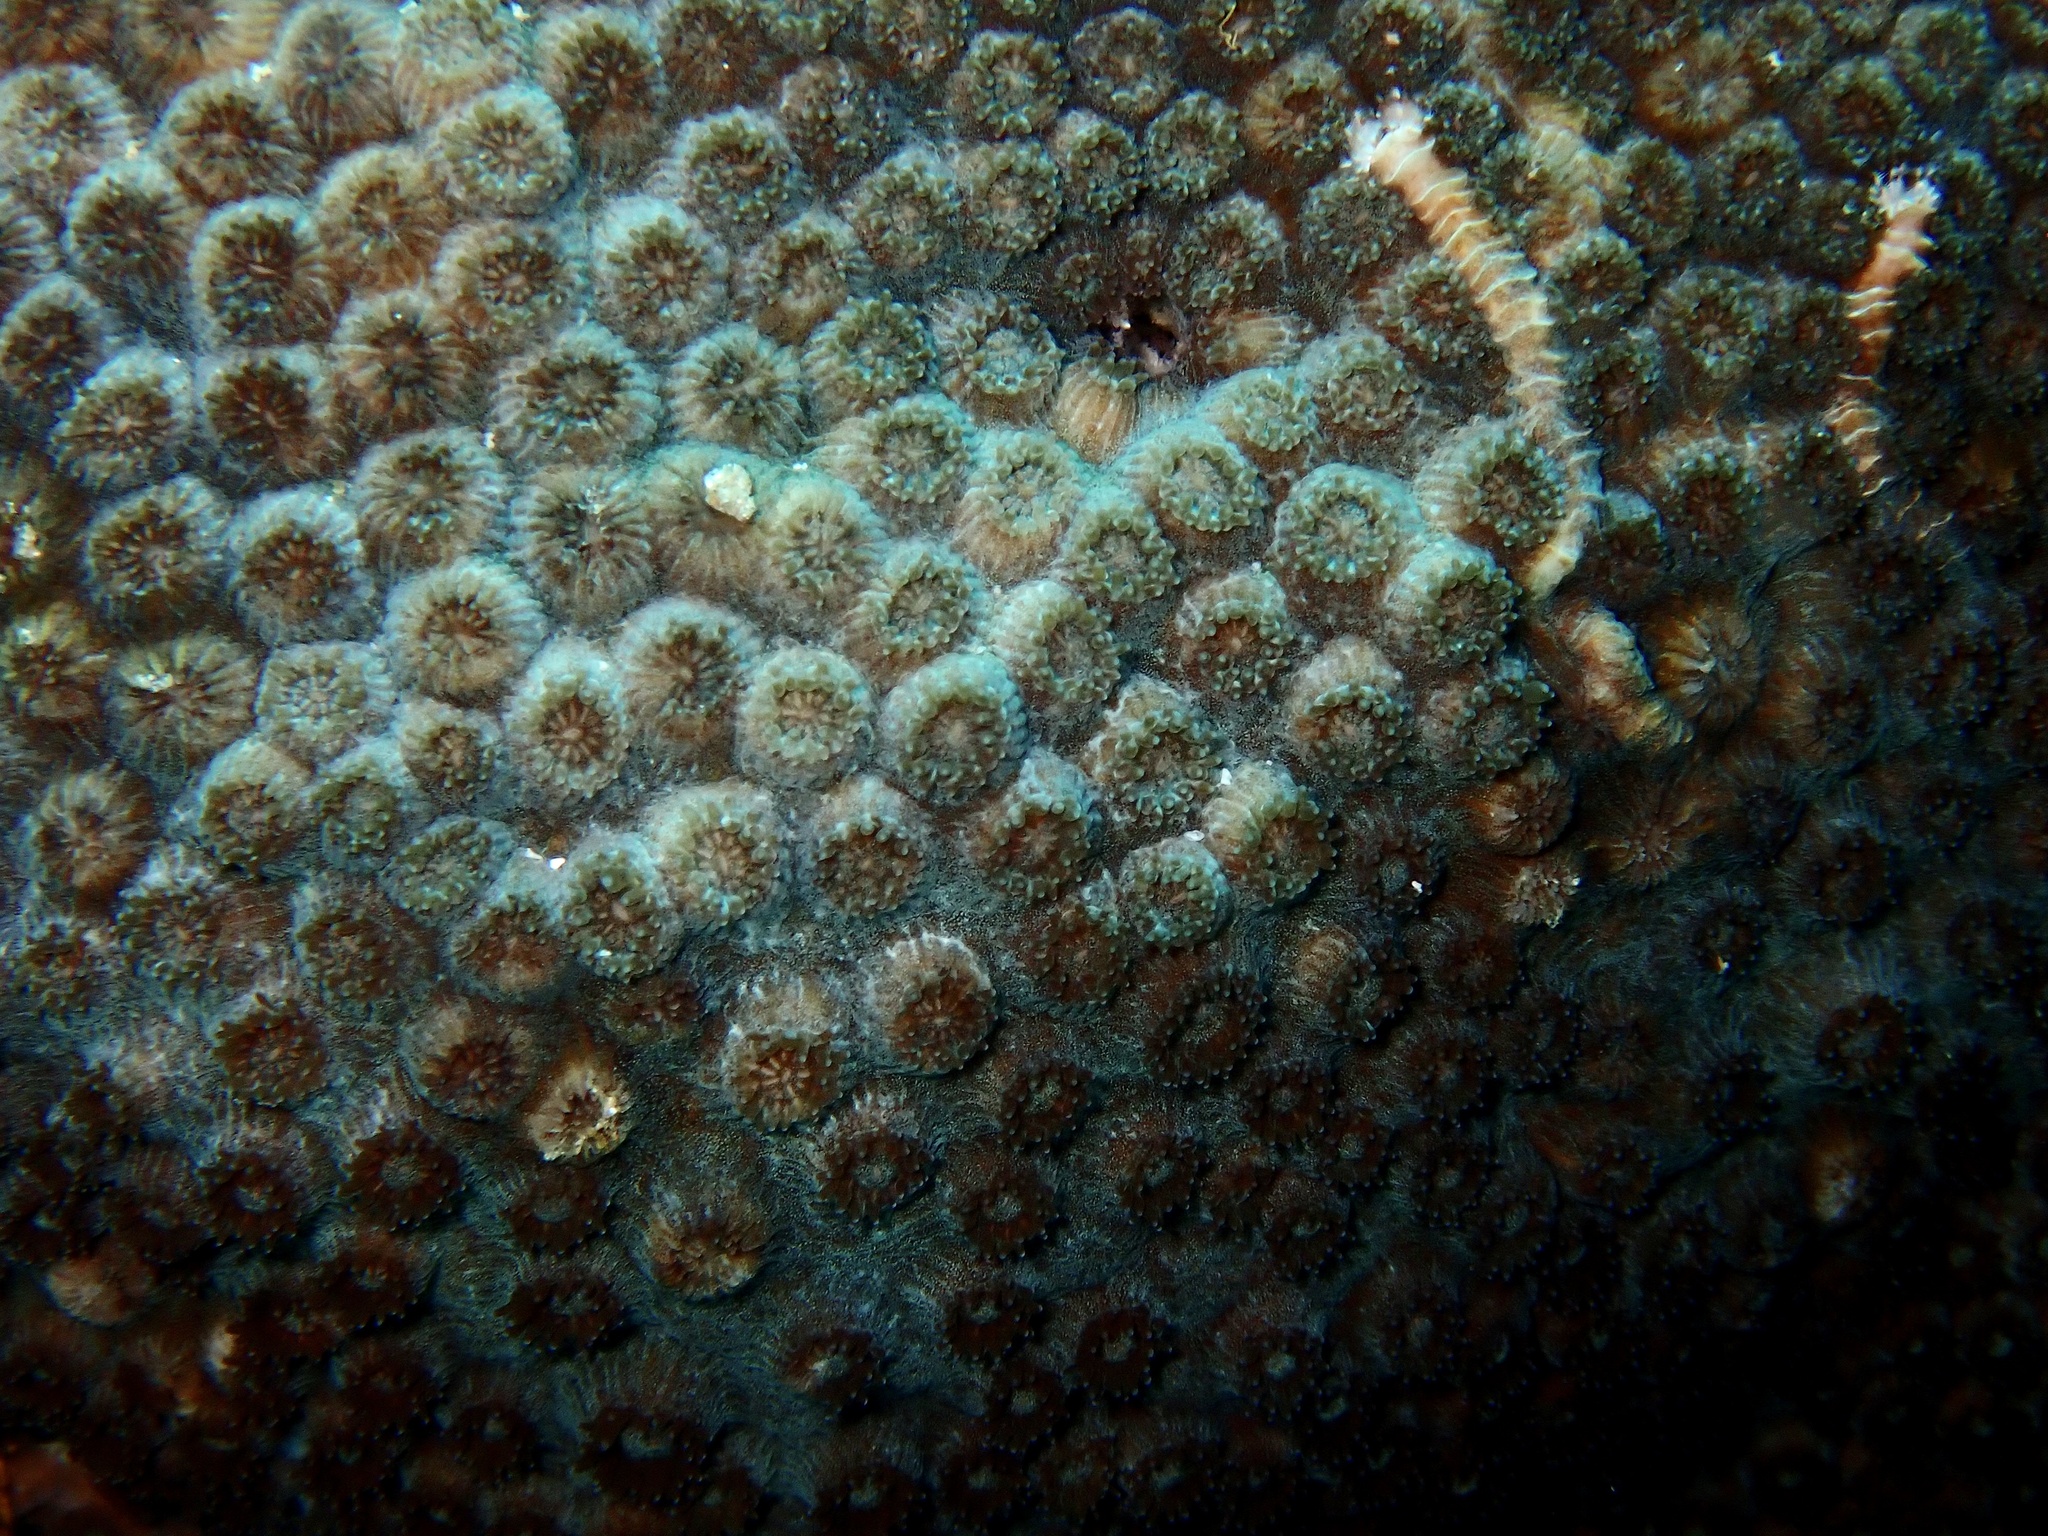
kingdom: Animalia
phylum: Cnidaria
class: Anthozoa
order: Scleractinia
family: Plesiastreidae
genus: Plesiastrea
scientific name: Plesiastrea peroni
